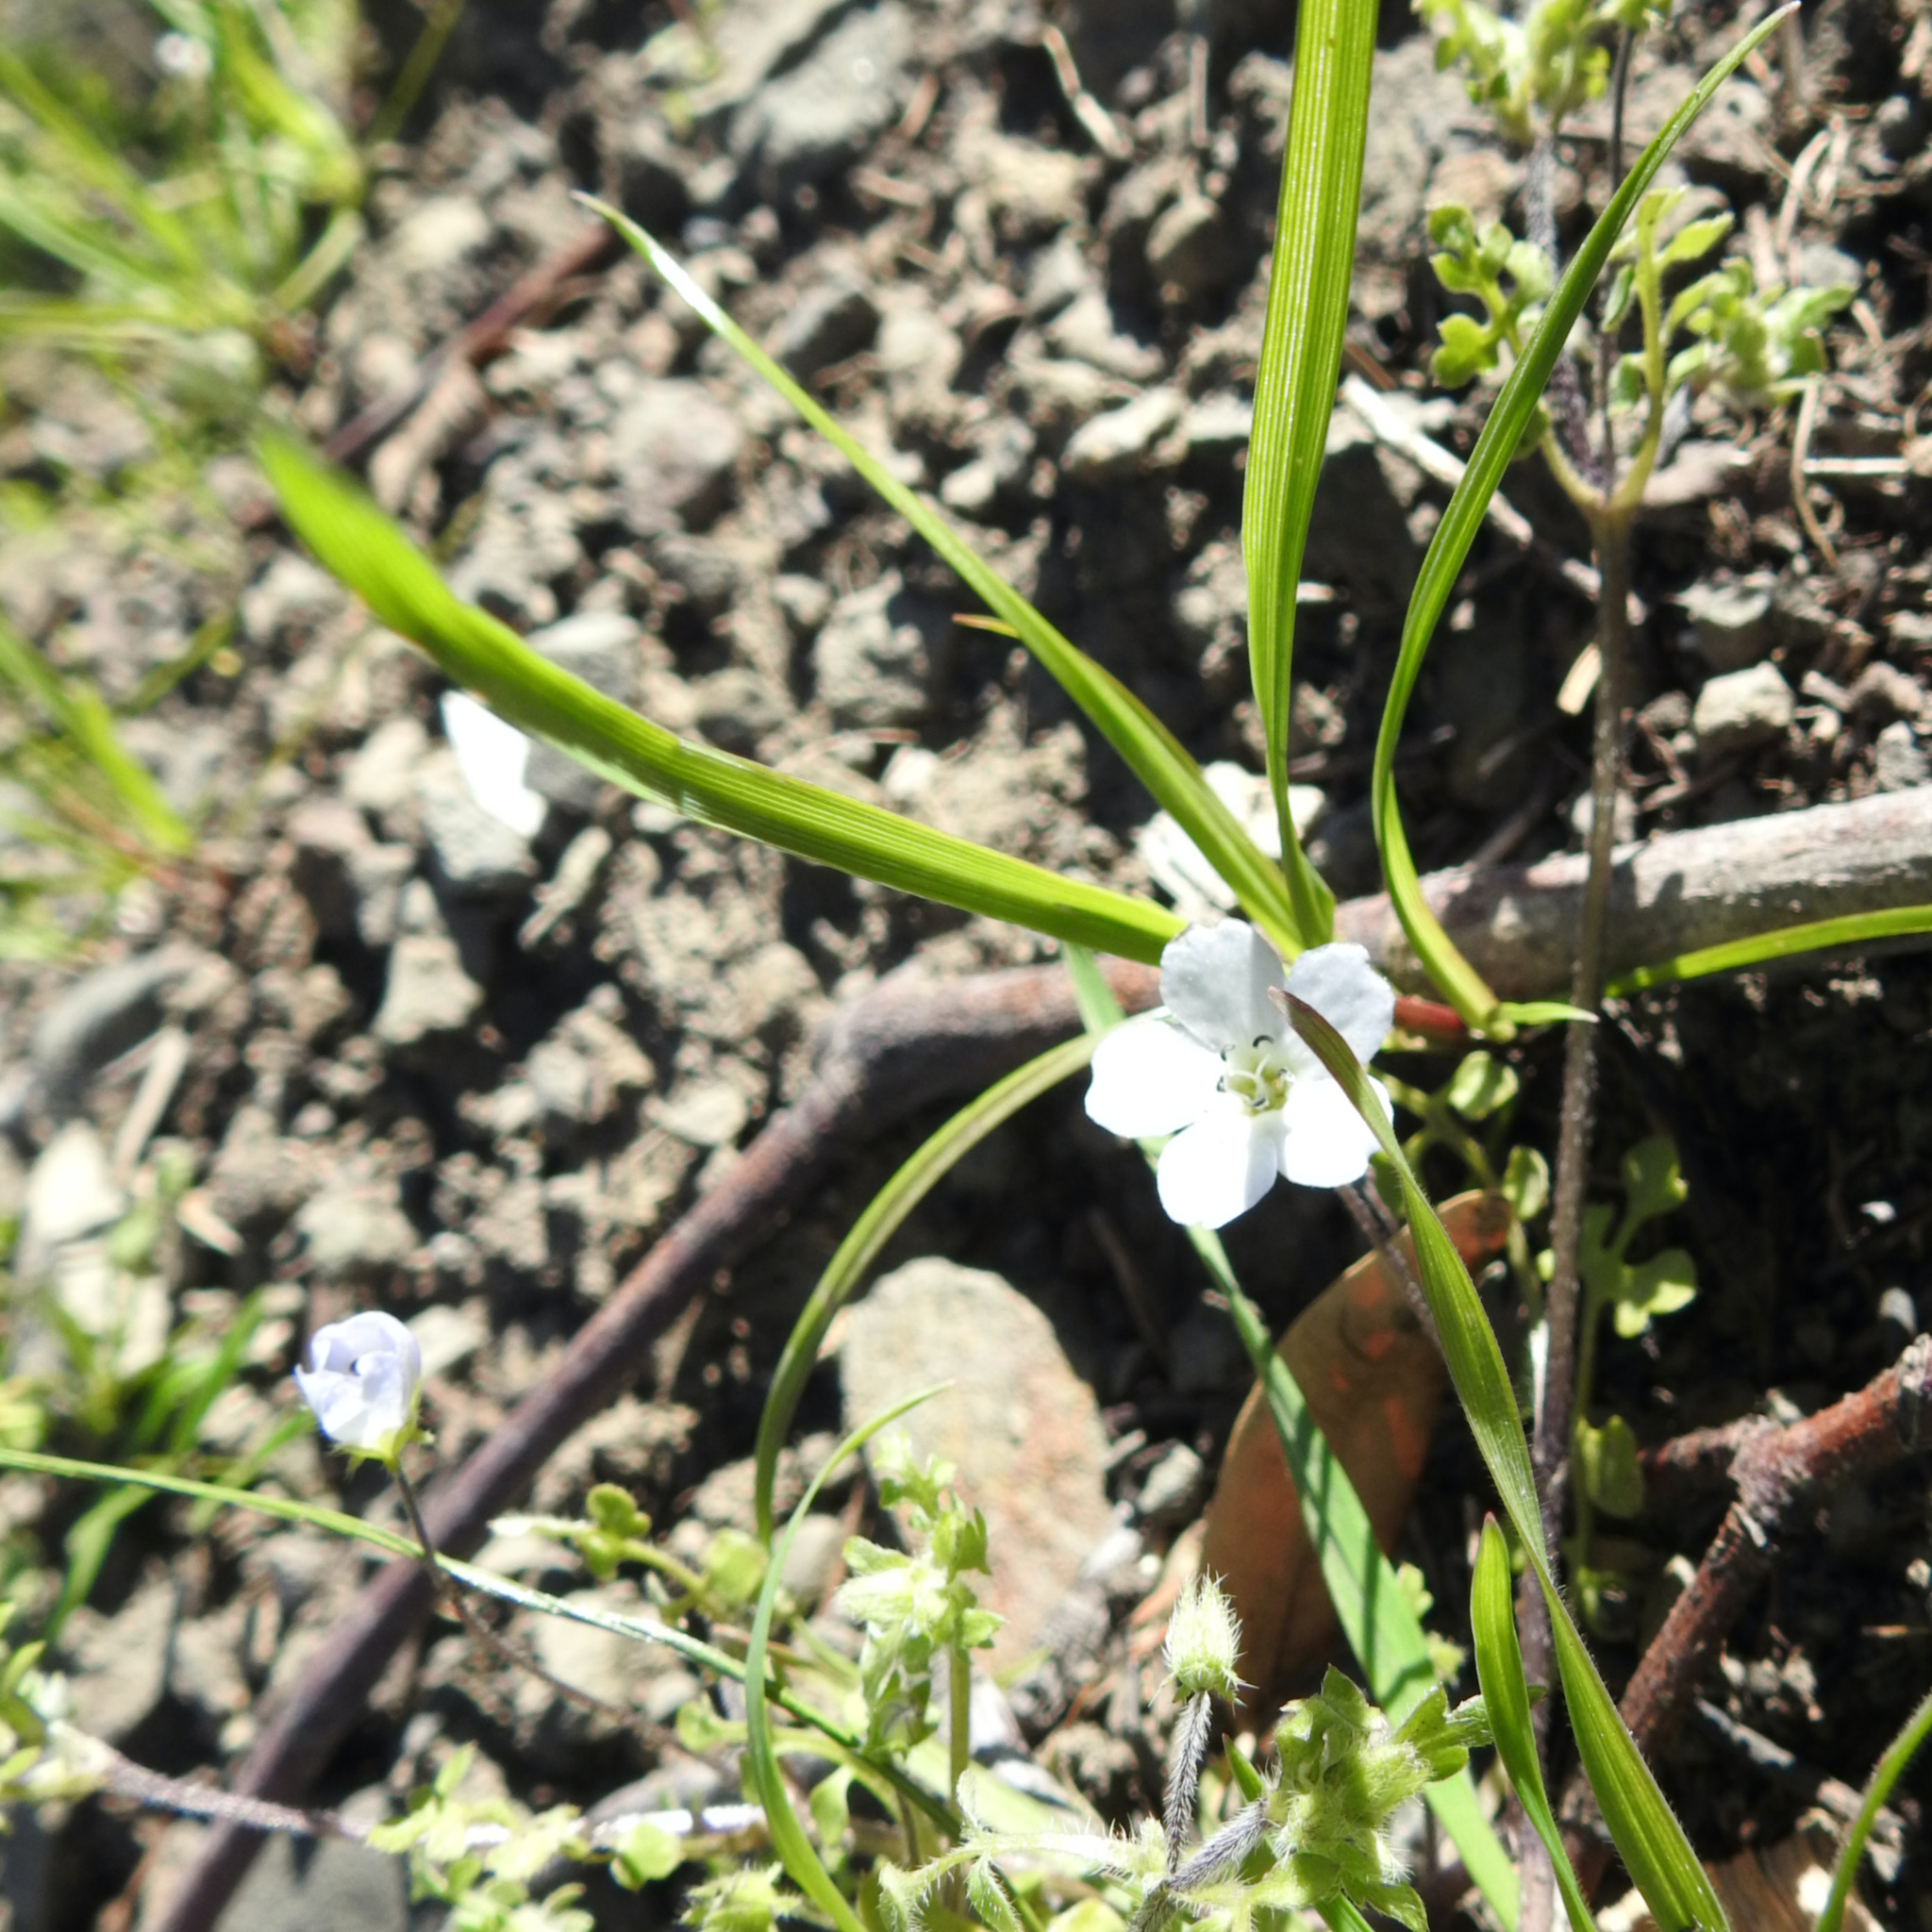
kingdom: Plantae
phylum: Tracheophyta
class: Magnoliopsida
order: Boraginales
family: Hydrophyllaceae
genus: Nemophila
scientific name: Nemophila heterophylla
